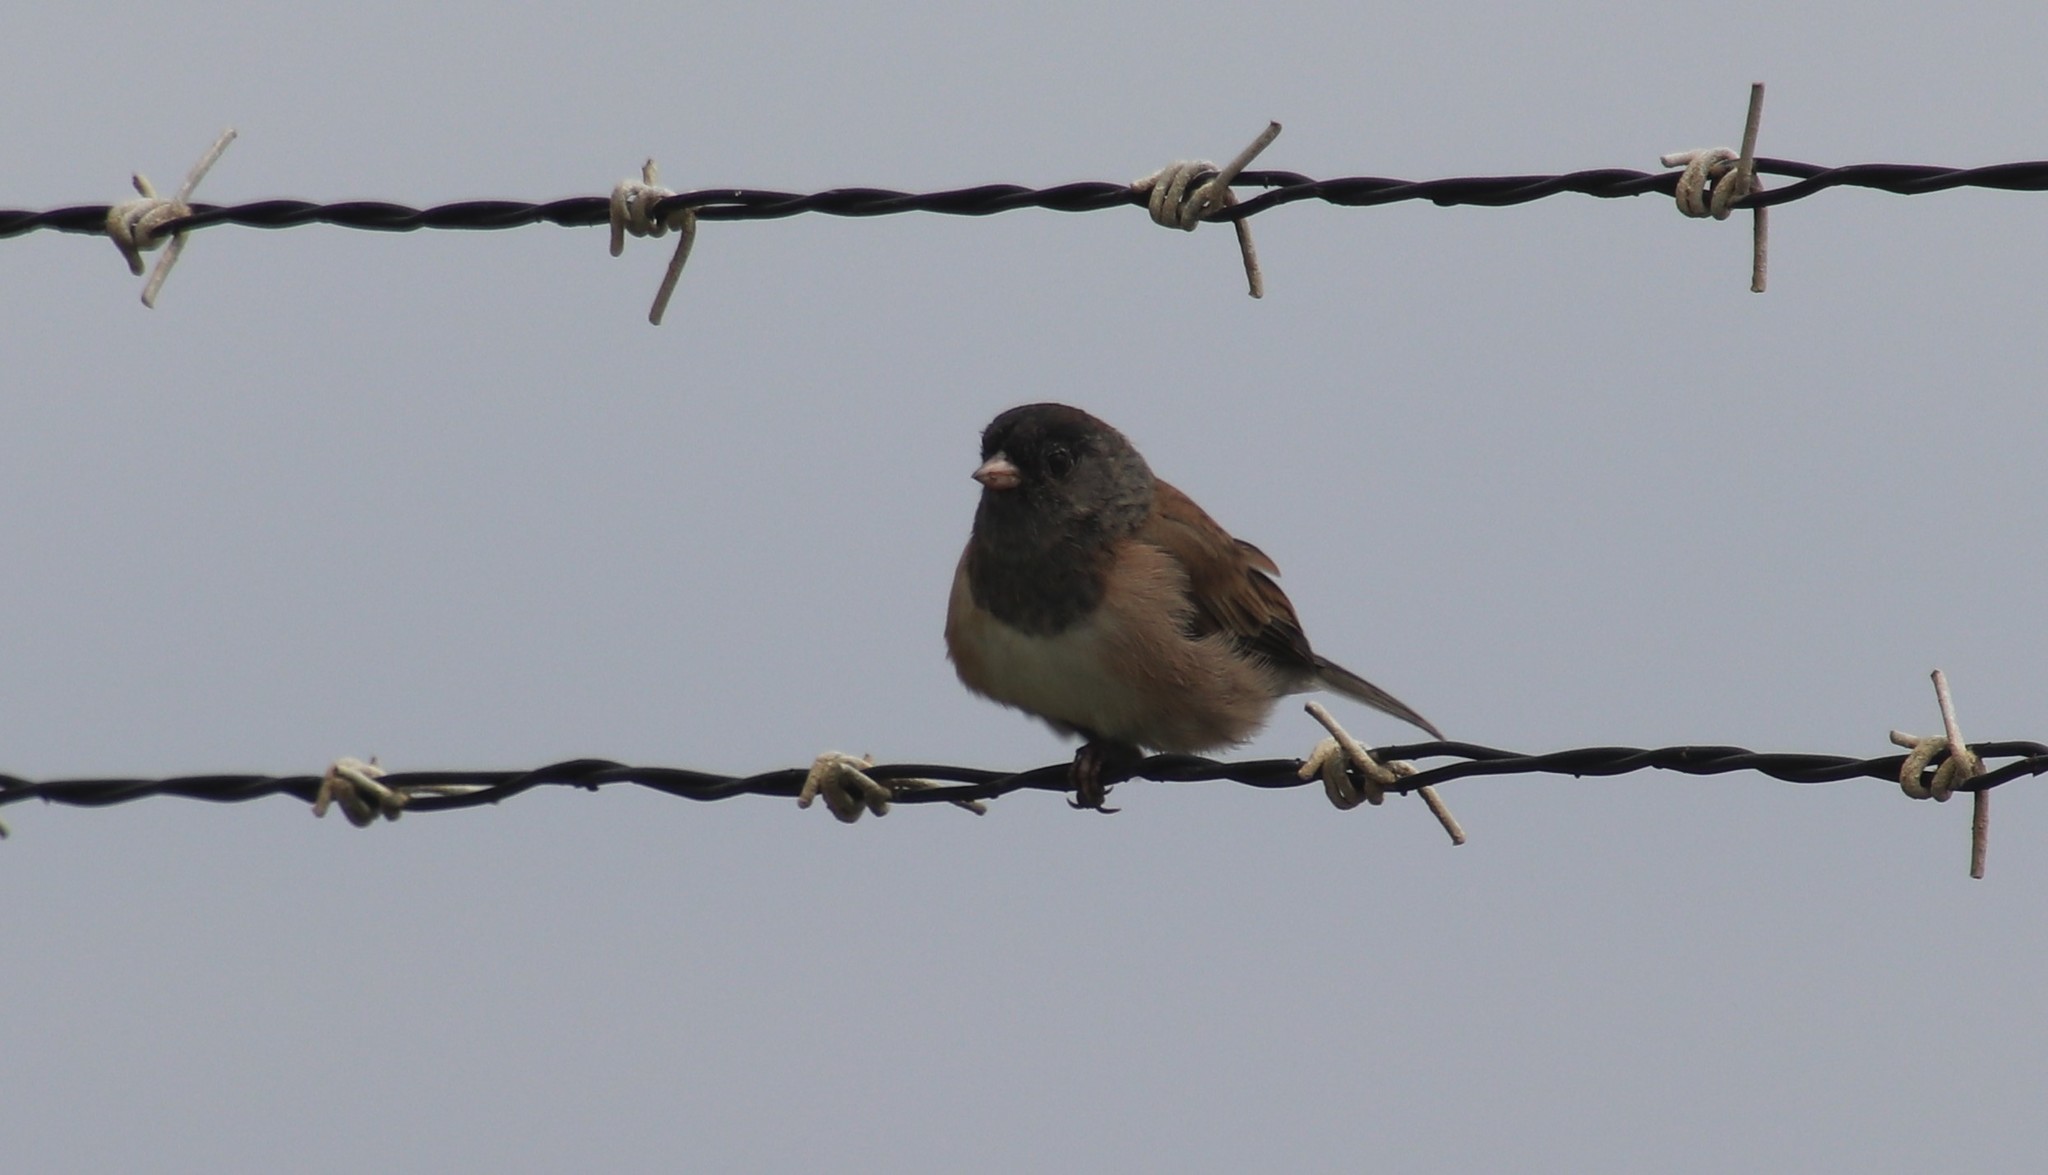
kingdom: Animalia
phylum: Chordata
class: Aves
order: Passeriformes
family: Passerellidae
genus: Junco
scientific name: Junco hyemalis
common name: Dark-eyed junco
